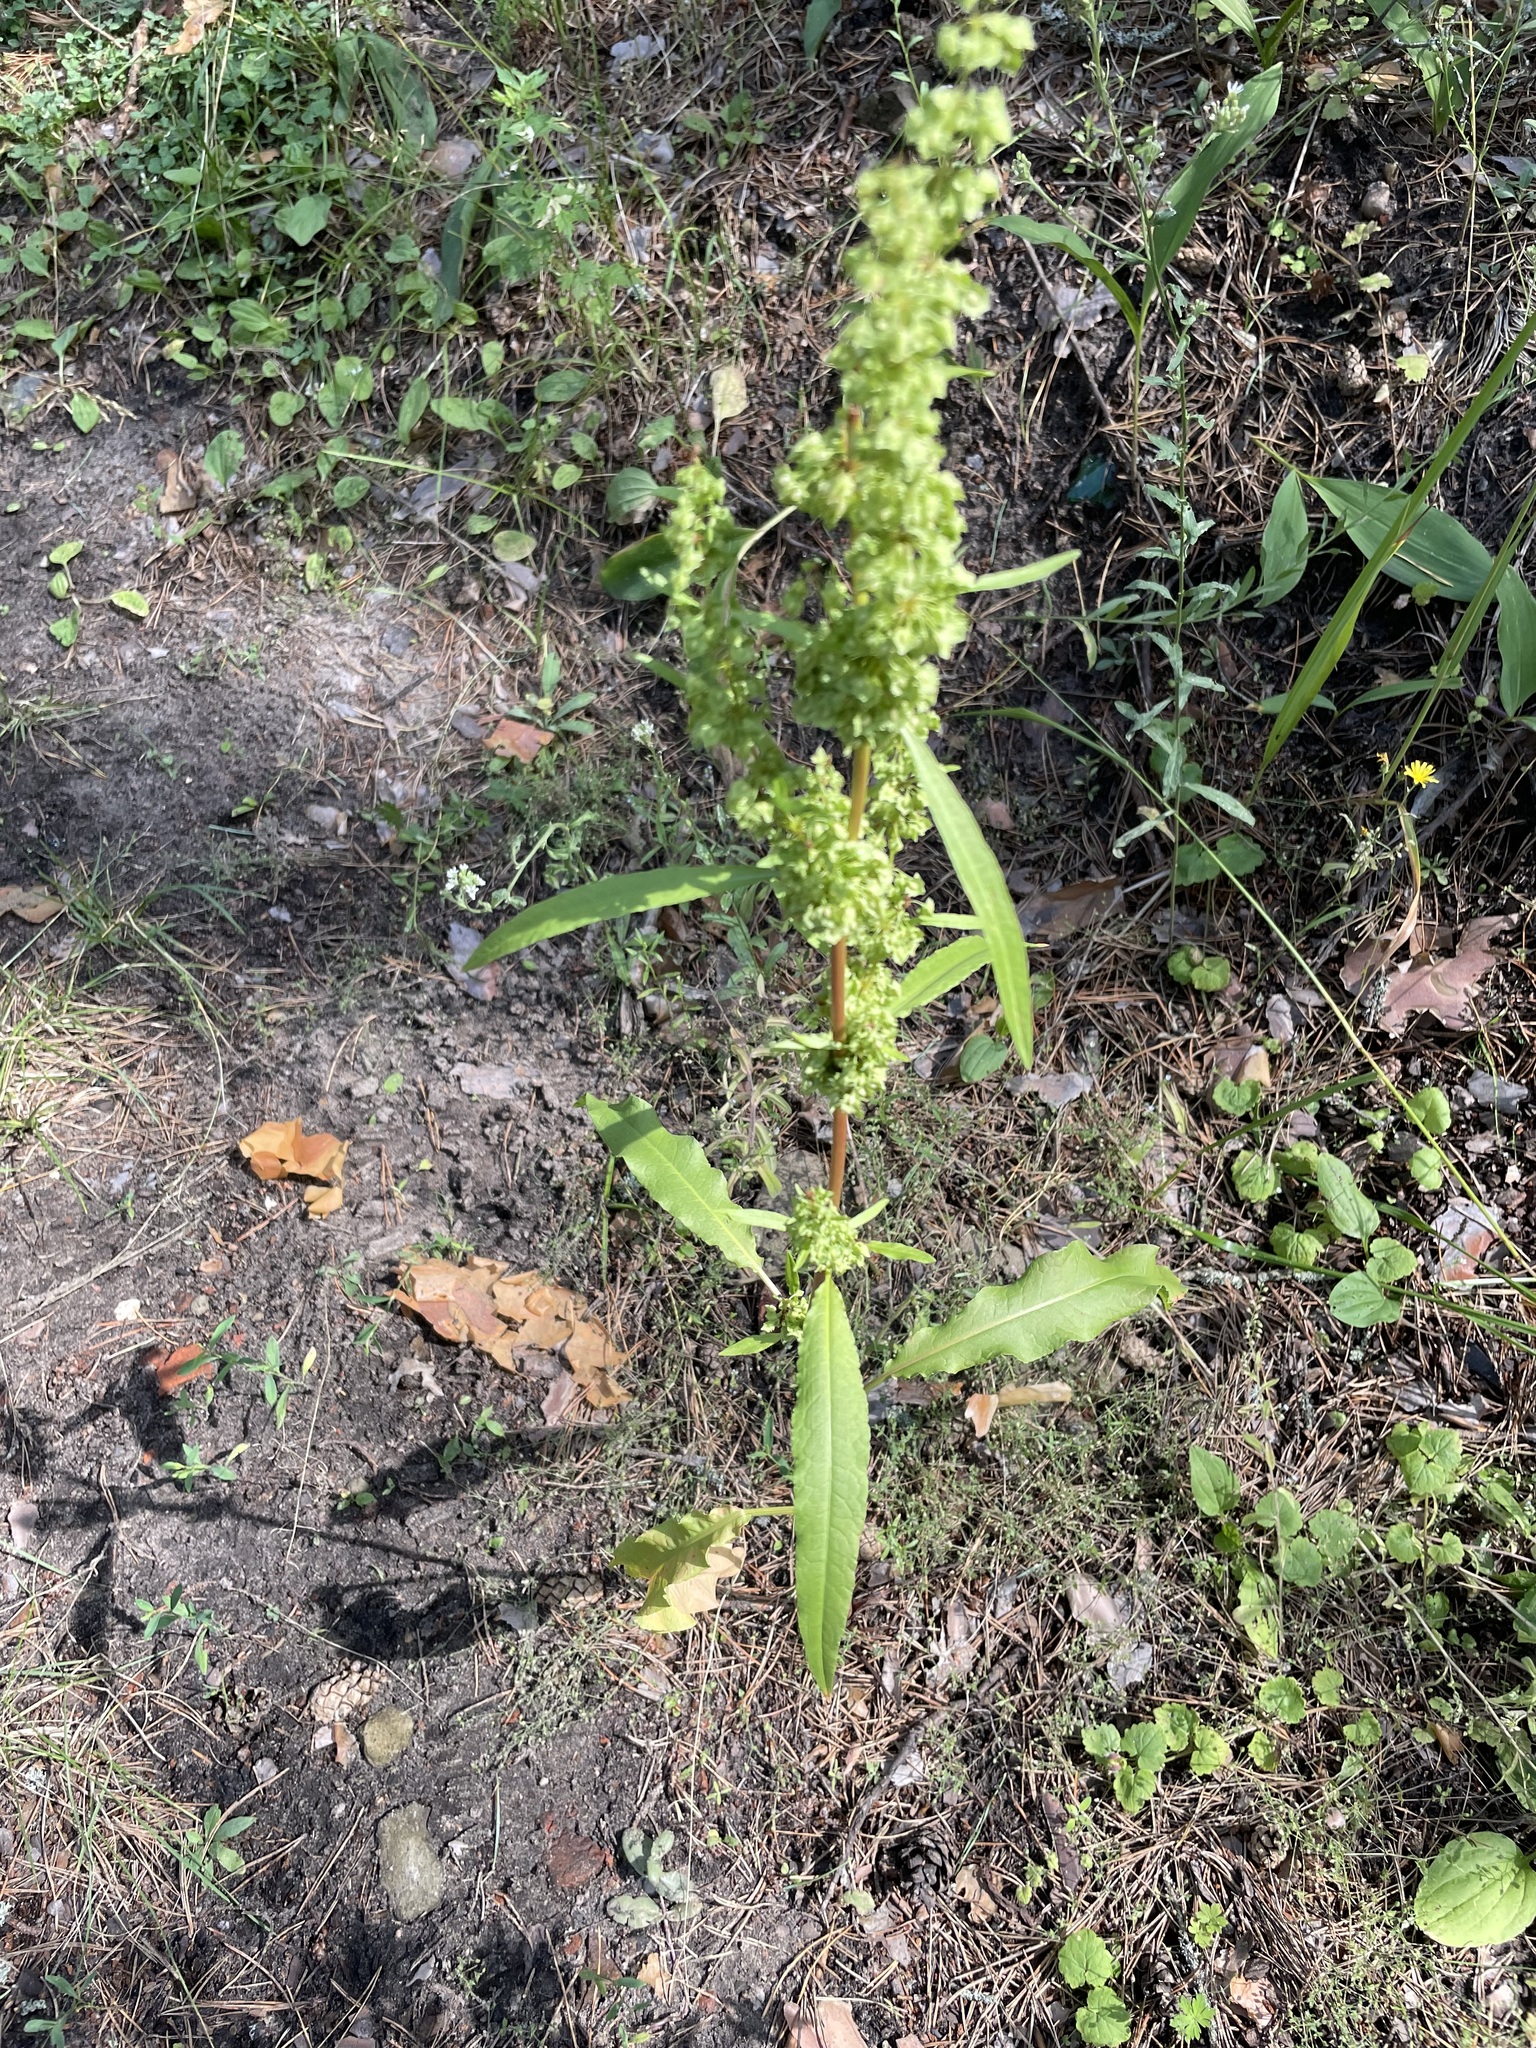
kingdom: Plantae
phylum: Tracheophyta
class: Magnoliopsida
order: Caryophyllales
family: Polygonaceae
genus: Rumex
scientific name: Rumex stenophyllus
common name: Narrowleaf dock
